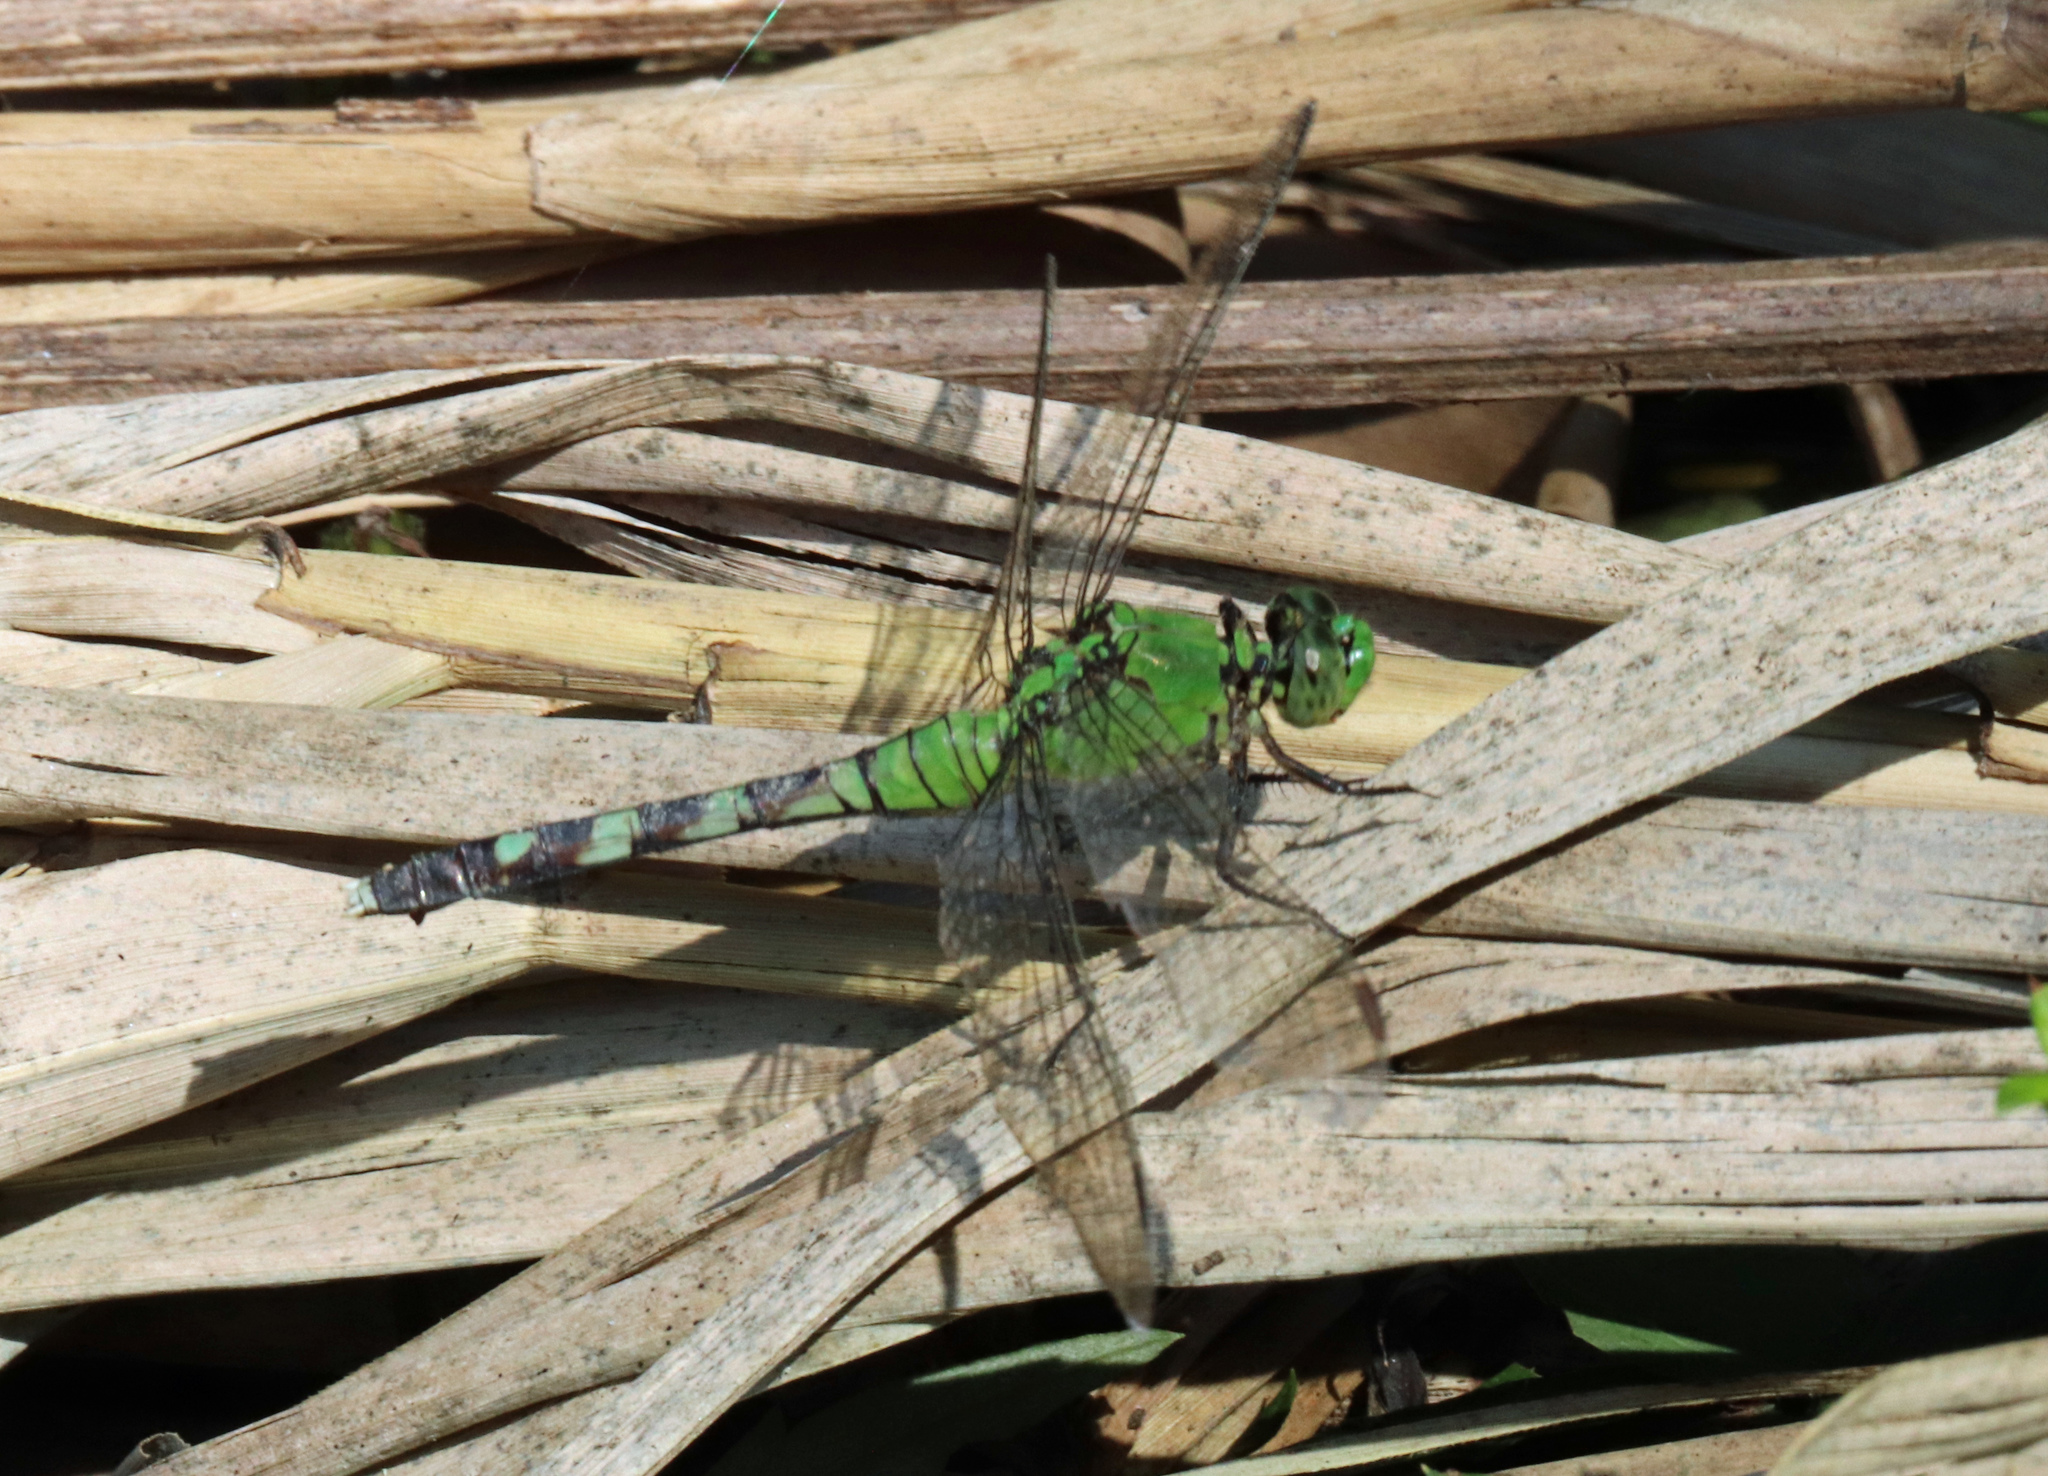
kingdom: Animalia
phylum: Arthropoda
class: Insecta
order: Odonata
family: Libellulidae
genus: Erythemis
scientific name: Erythemis simplicicollis
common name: Eastern pondhawk
